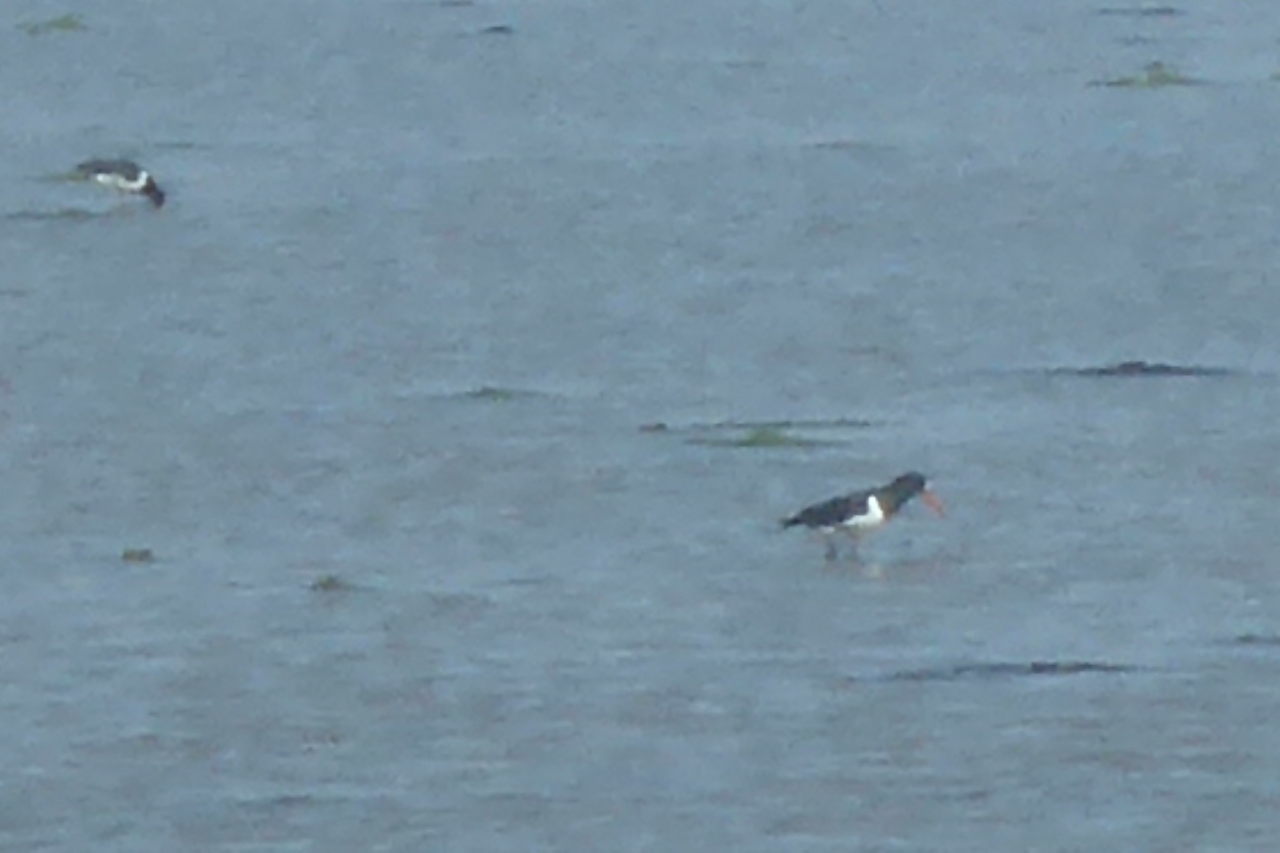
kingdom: Animalia
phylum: Chordata
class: Aves
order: Charadriiformes
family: Haematopodidae
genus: Haematopus
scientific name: Haematopus finschi
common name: South island oystercatcher
